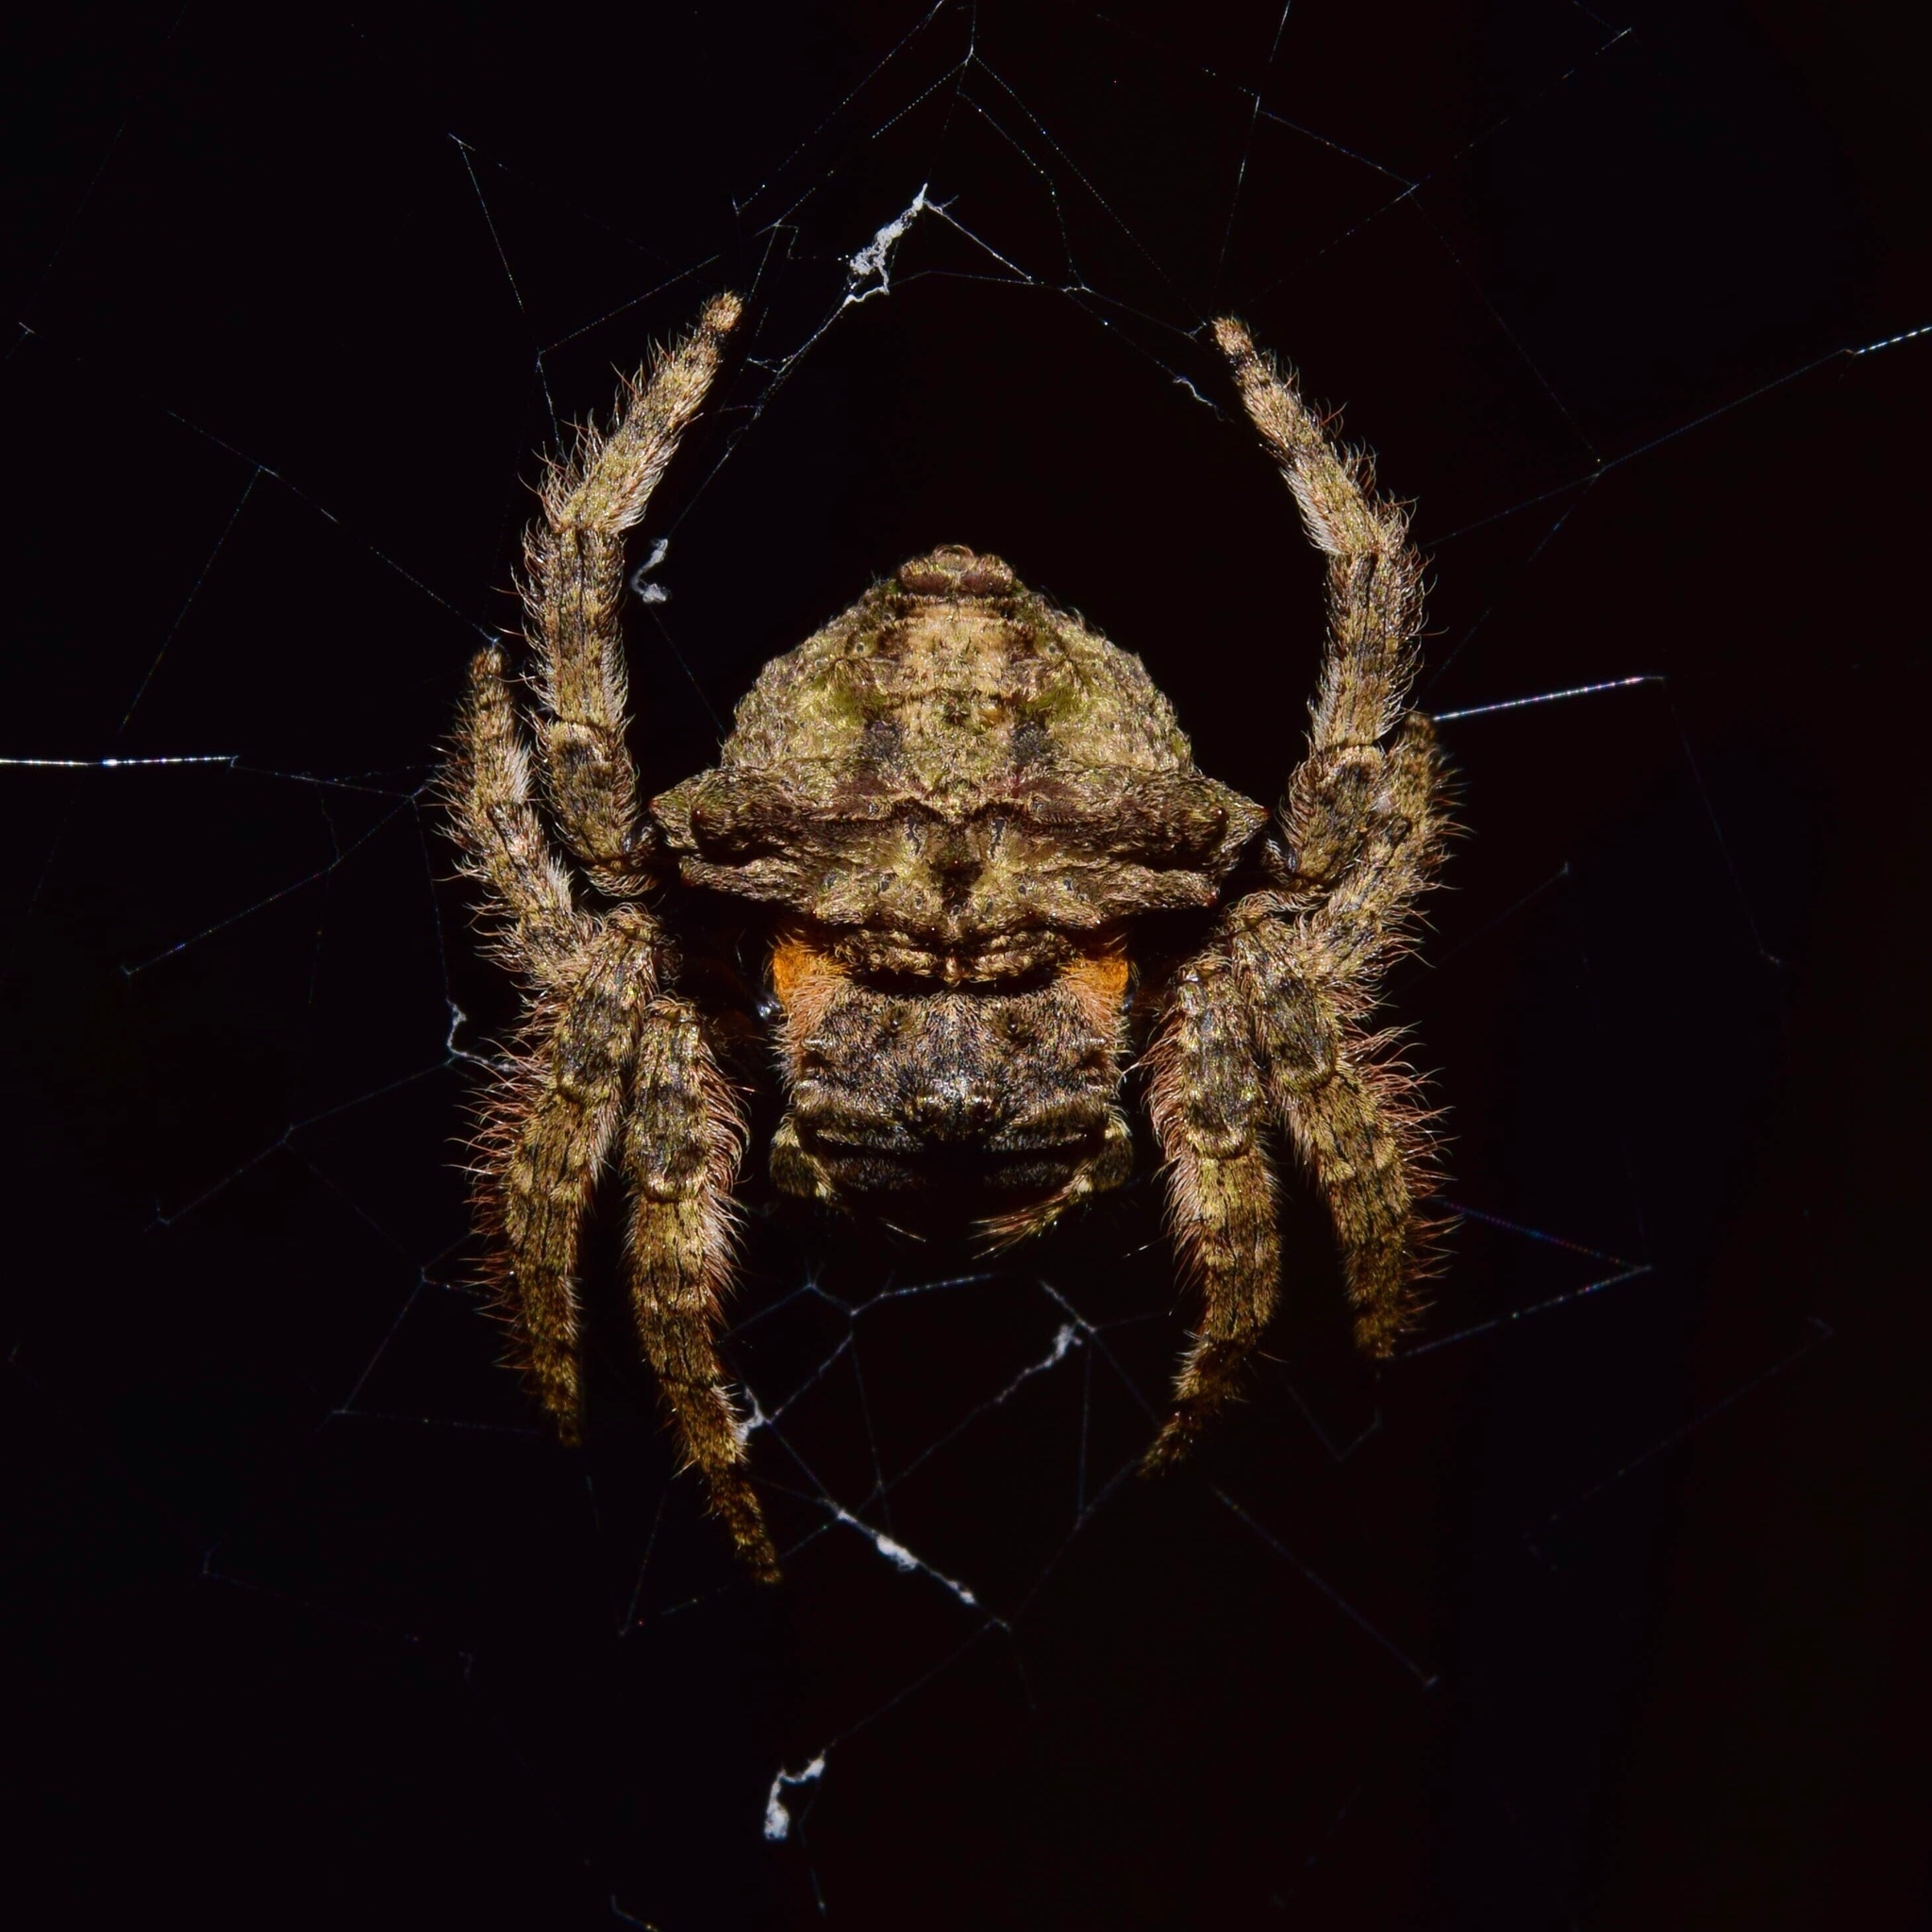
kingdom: Animalia
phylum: Arthropoda
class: Arachnida
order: Araneae
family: Araneidae
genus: Caerostris
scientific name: Caerostris sexcuspidata
